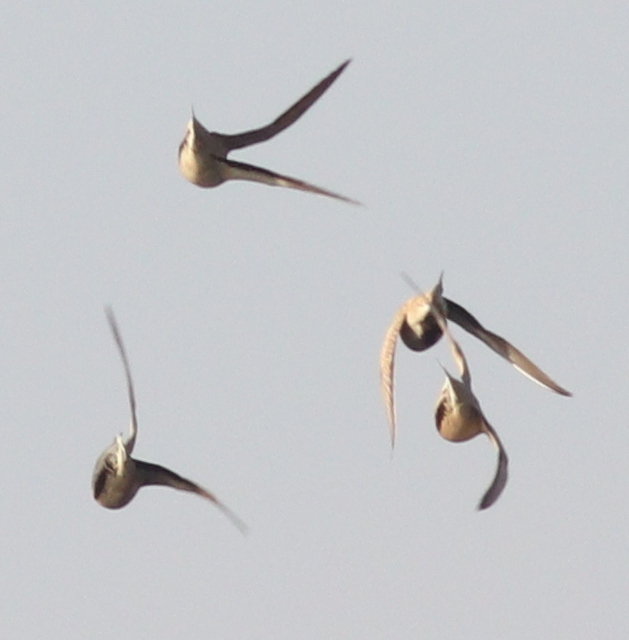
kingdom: Animalia
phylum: Chordata
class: Aves
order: Pteroclidiformes
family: Pteroclididae
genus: Pterocles
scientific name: Pterocles senegallus
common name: Spotted sandgrouse
